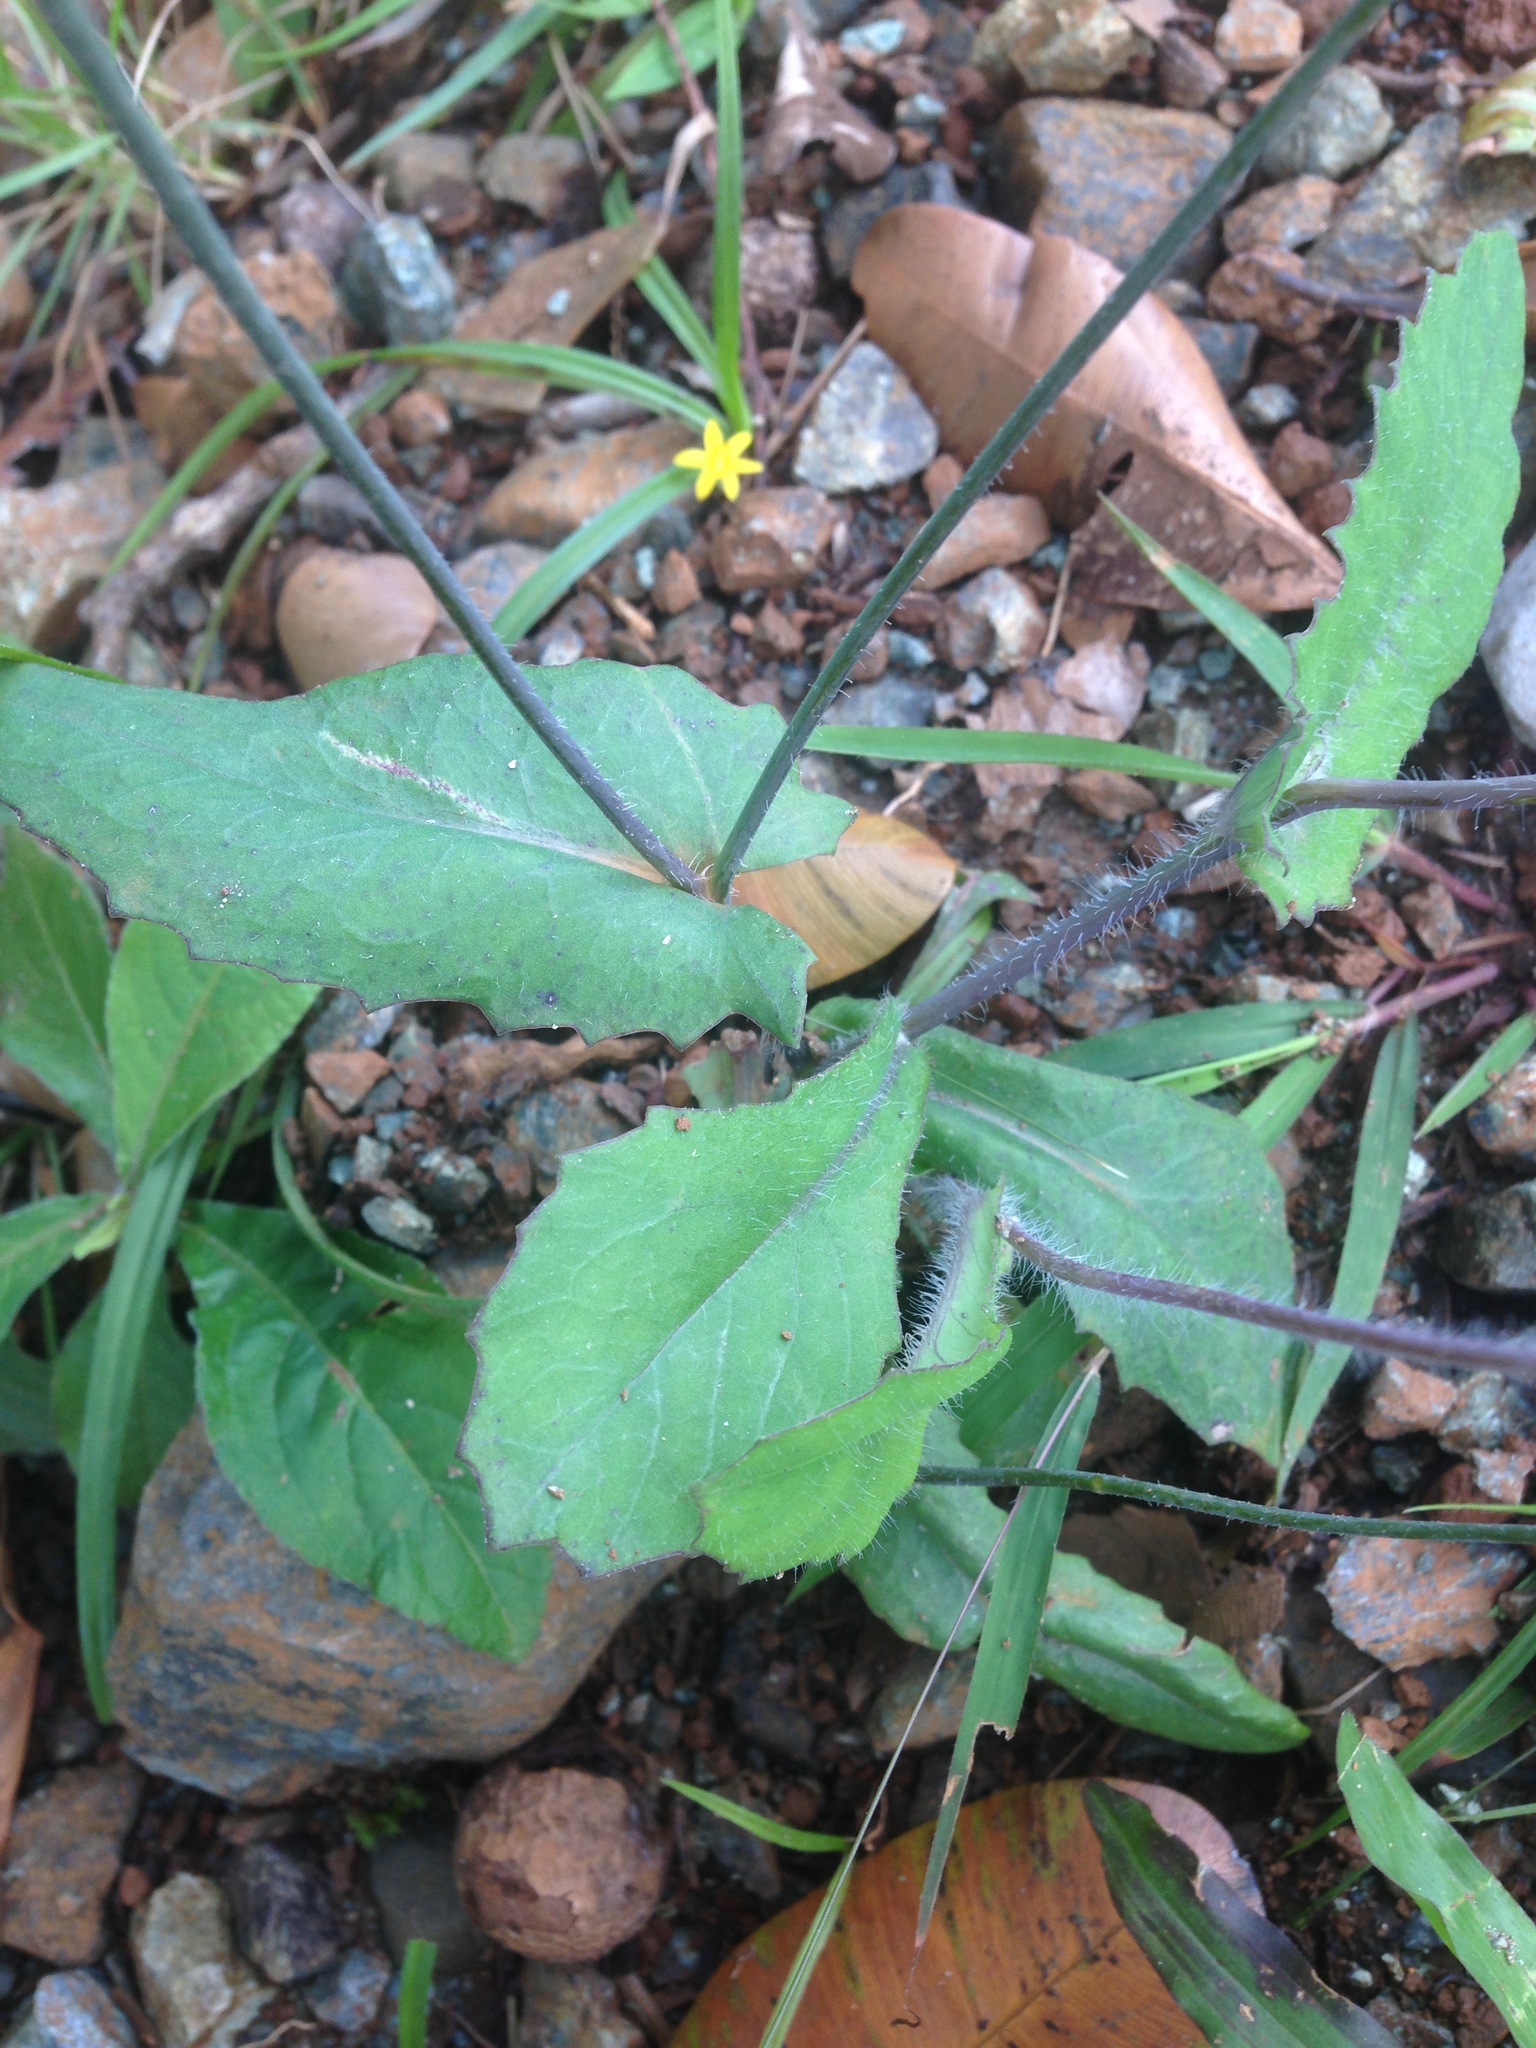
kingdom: Plantae
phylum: Tracheophyta
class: Magnoliopsida
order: Asterales
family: Asteraceae
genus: Emilia
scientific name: Emilia fosbergii
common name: Florida tasselflower
